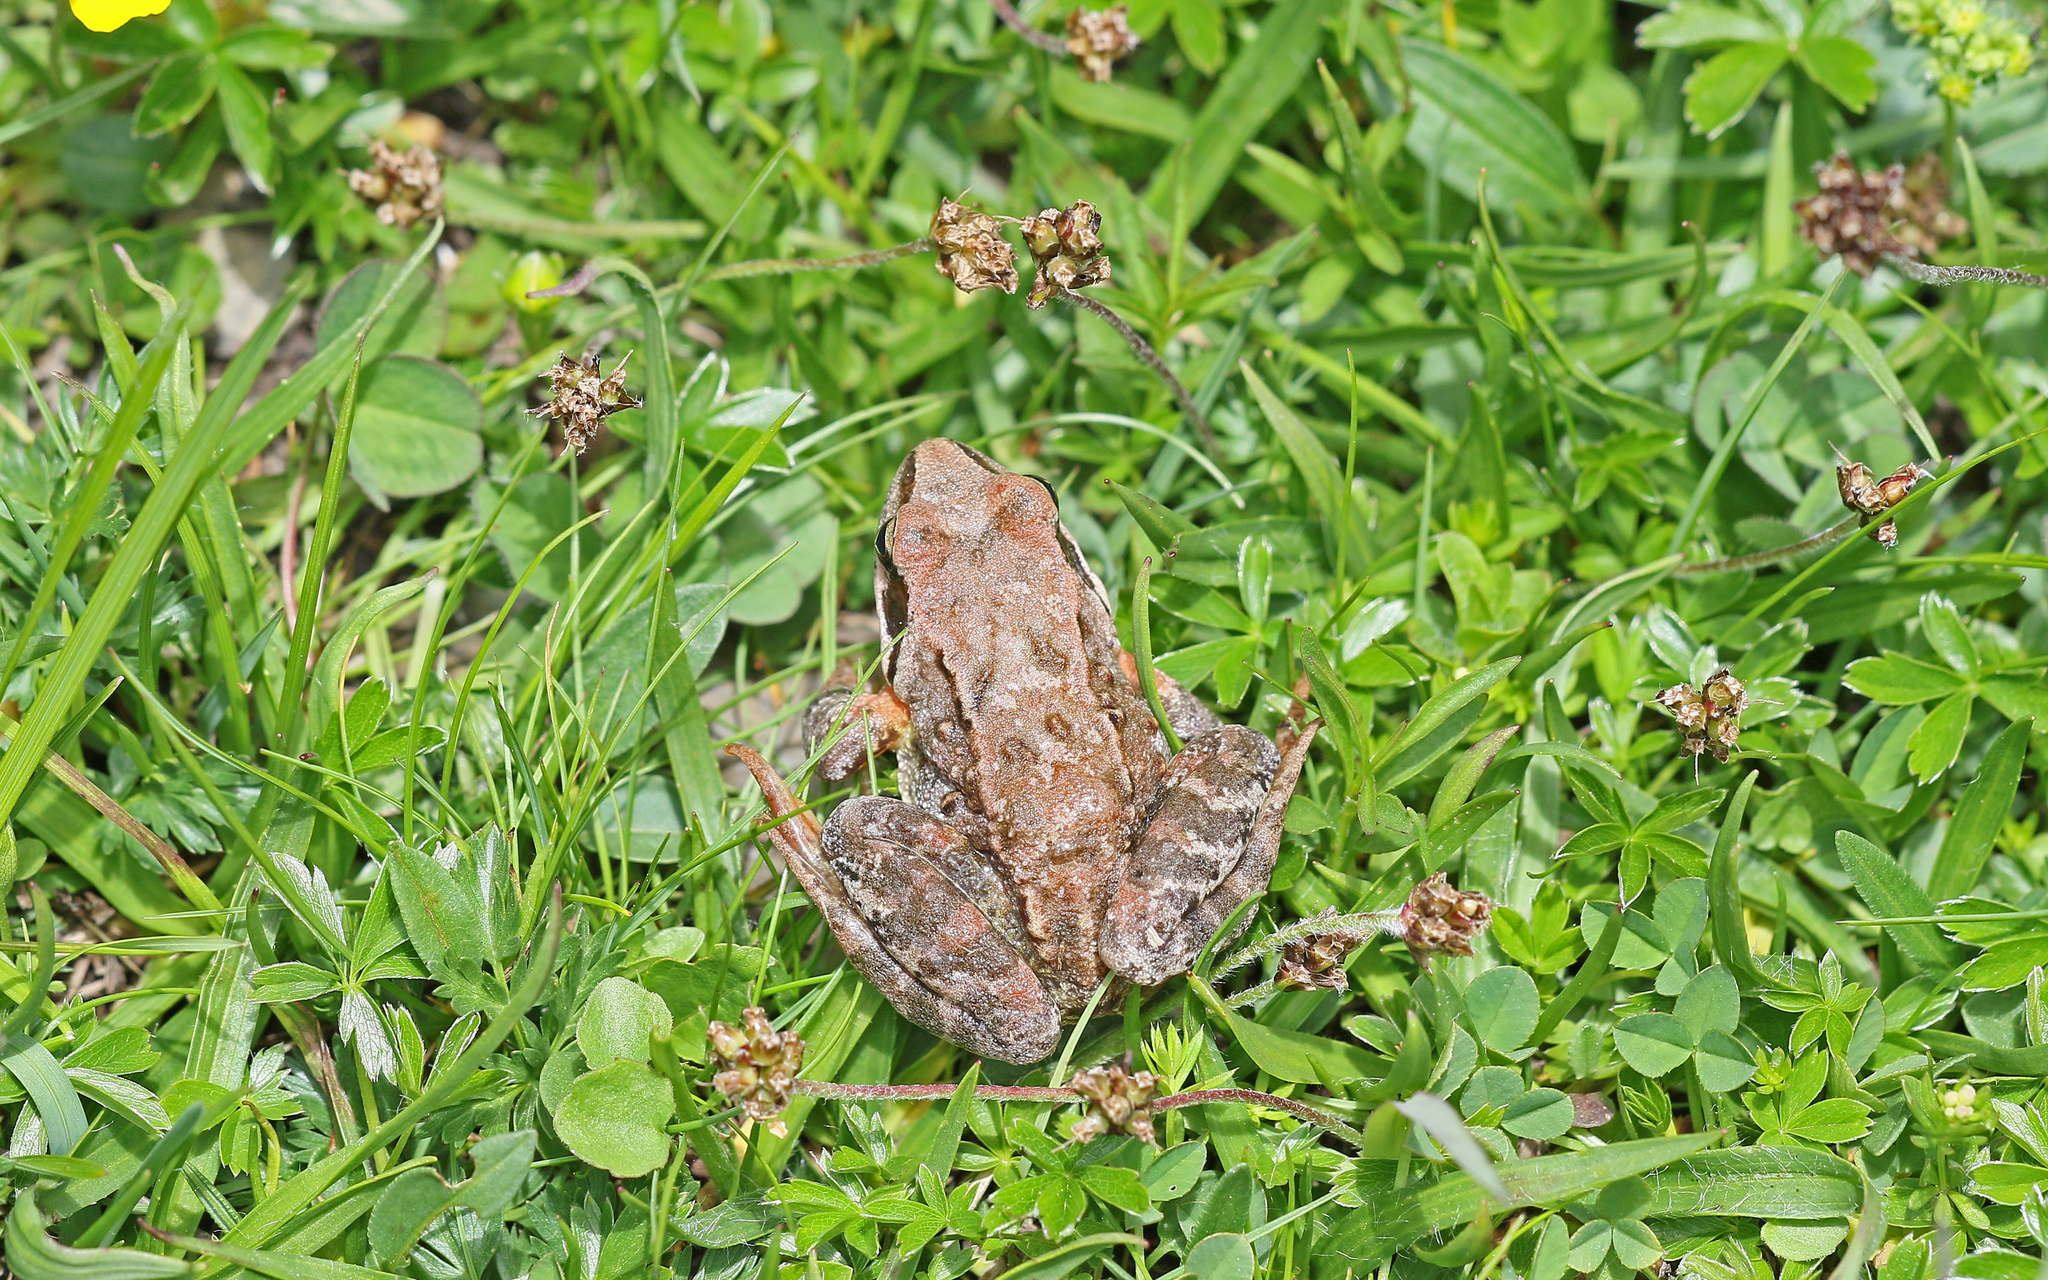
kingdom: Animalia
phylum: Chordata
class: Amphibia
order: Anura
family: Ranidae
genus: Rana
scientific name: Rana temporaria
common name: Common frog
